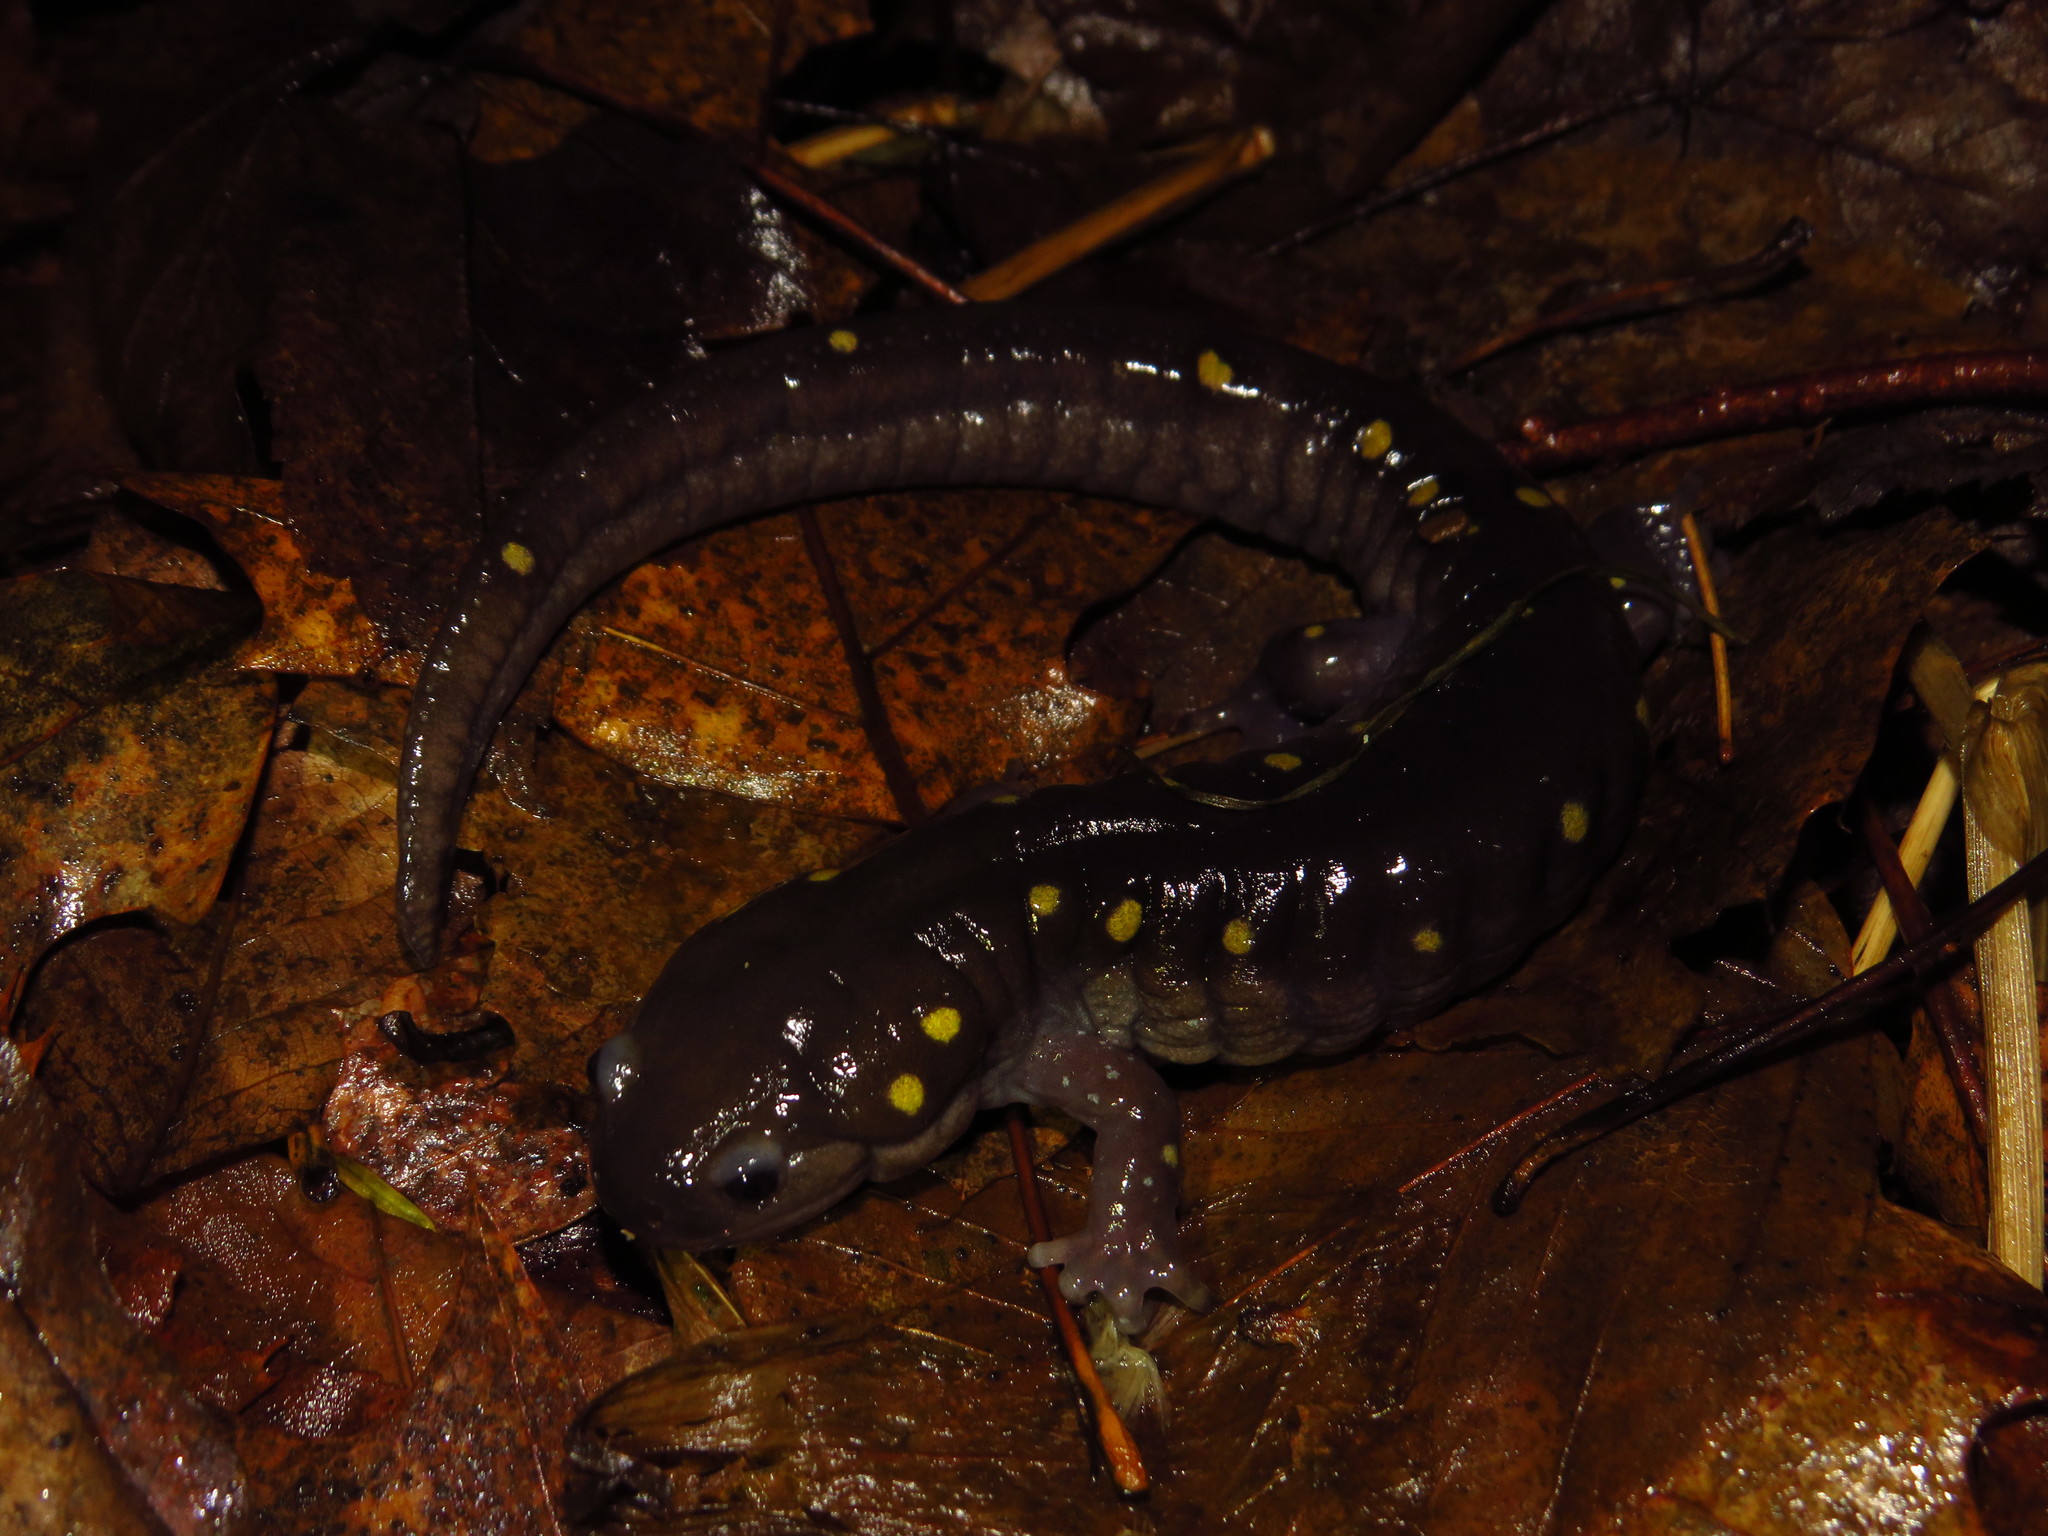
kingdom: Animalia
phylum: Chordata
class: Amphibia
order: Caudata
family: Ambystomatidae
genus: Ambystoma
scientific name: Ambystoma maculatum
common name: Spotted salamander
